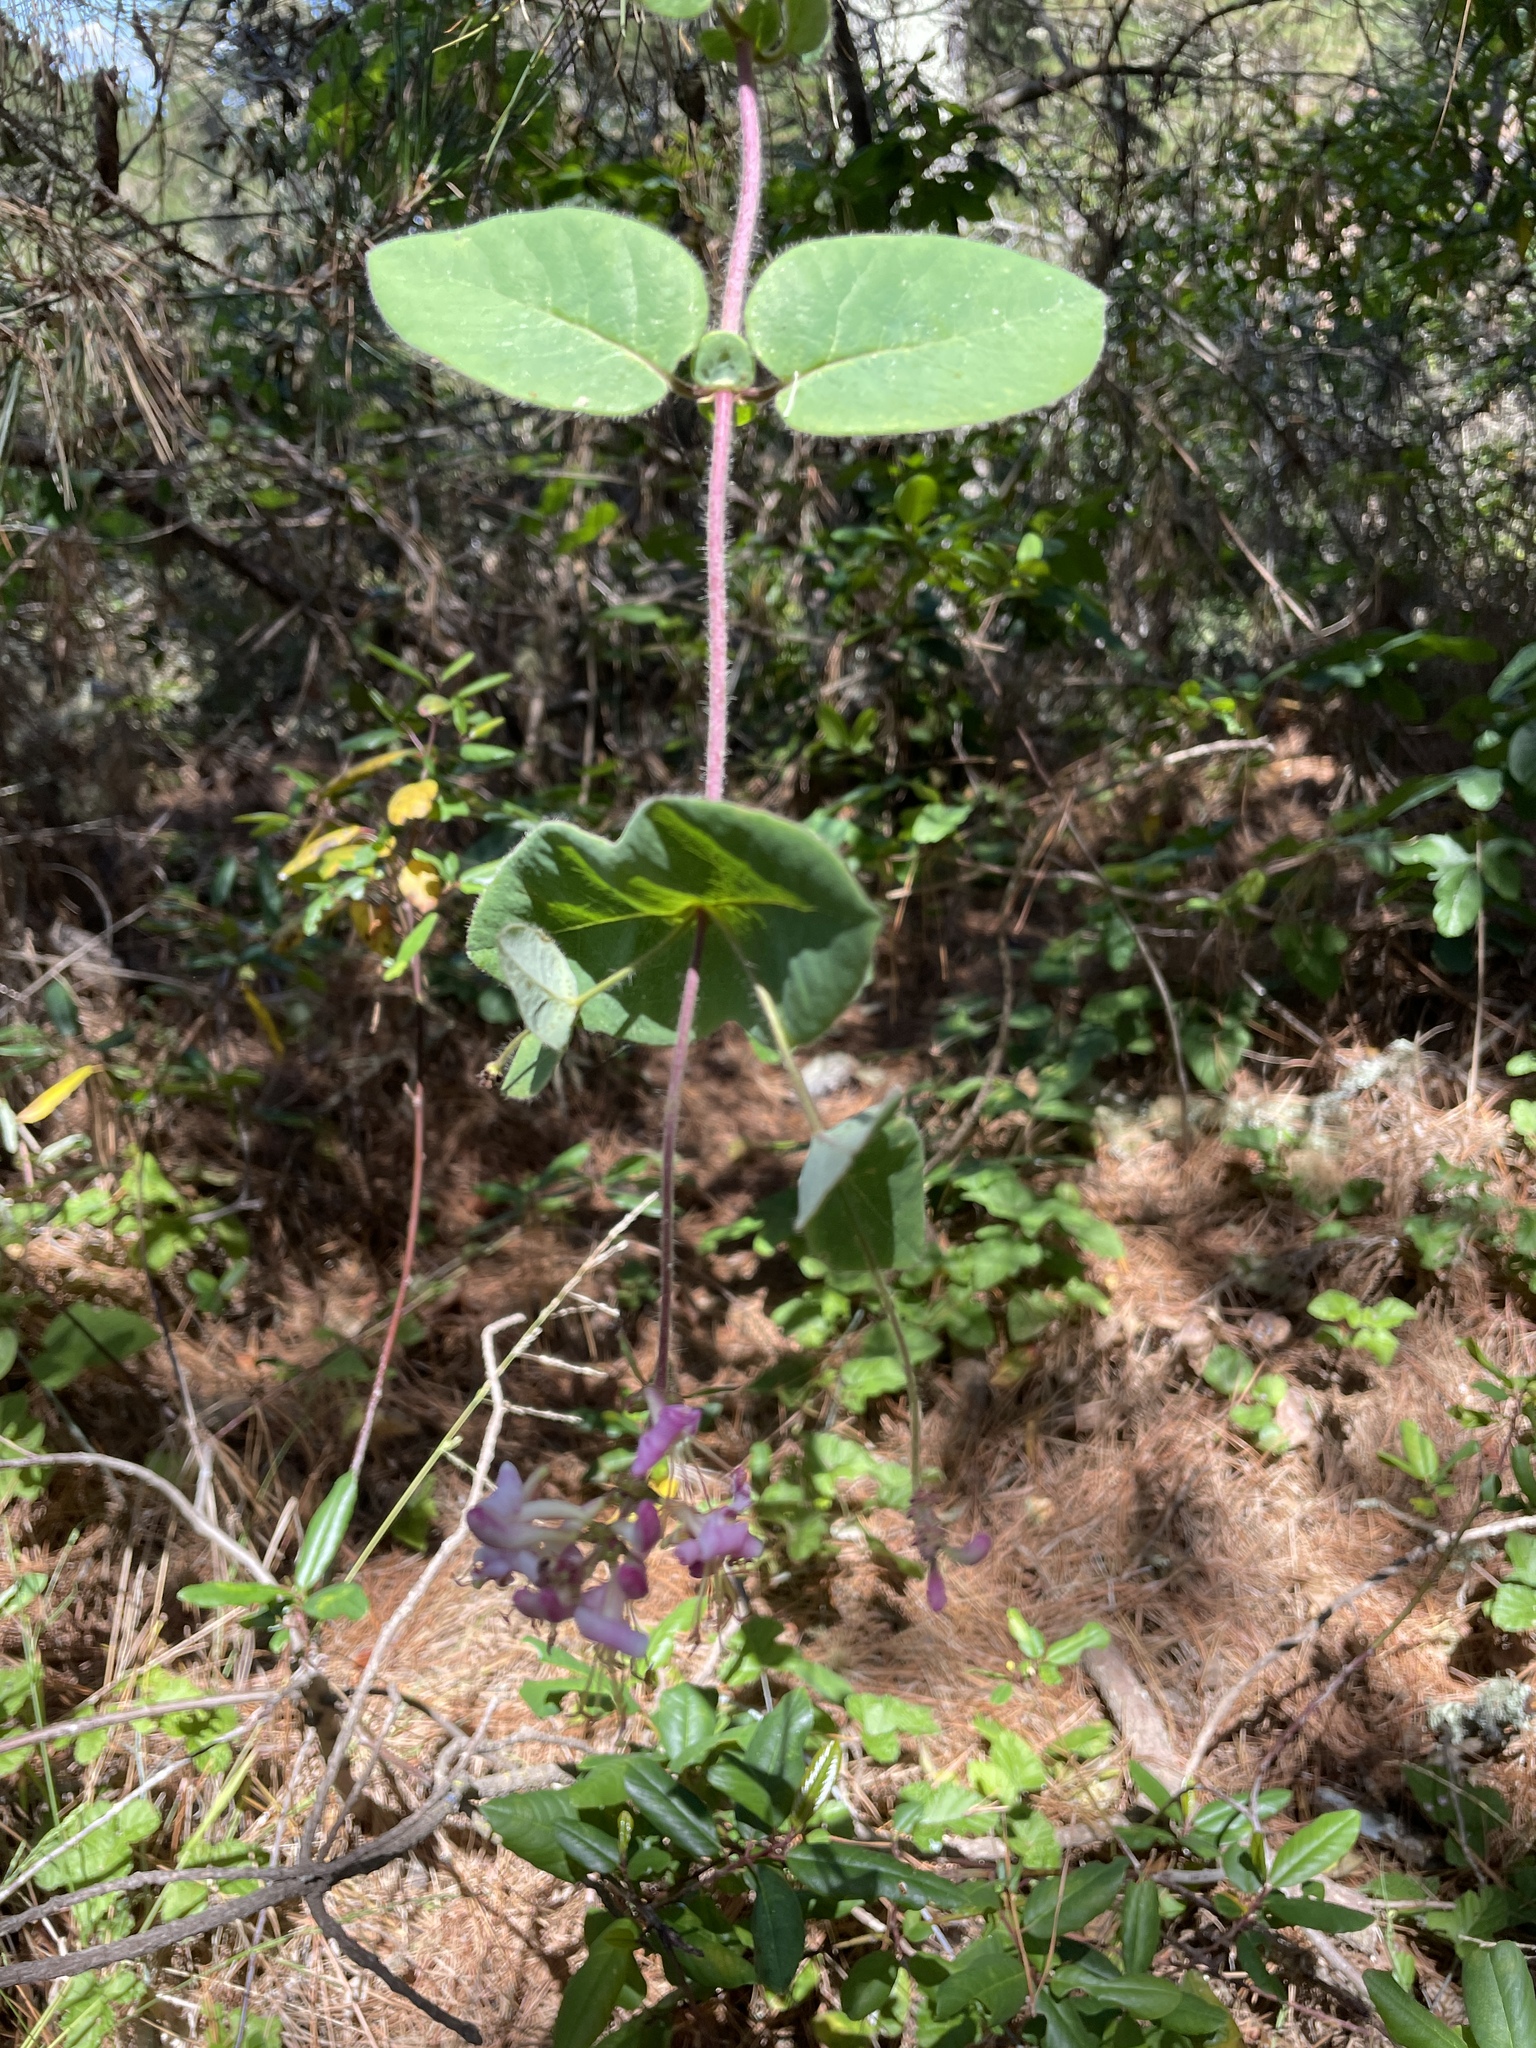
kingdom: Plantae
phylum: Tracheophyta
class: Magnoliopsida
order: Dipsacales
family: Caprifoliaceae
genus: Lonicera
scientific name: Lonicera hispidula
